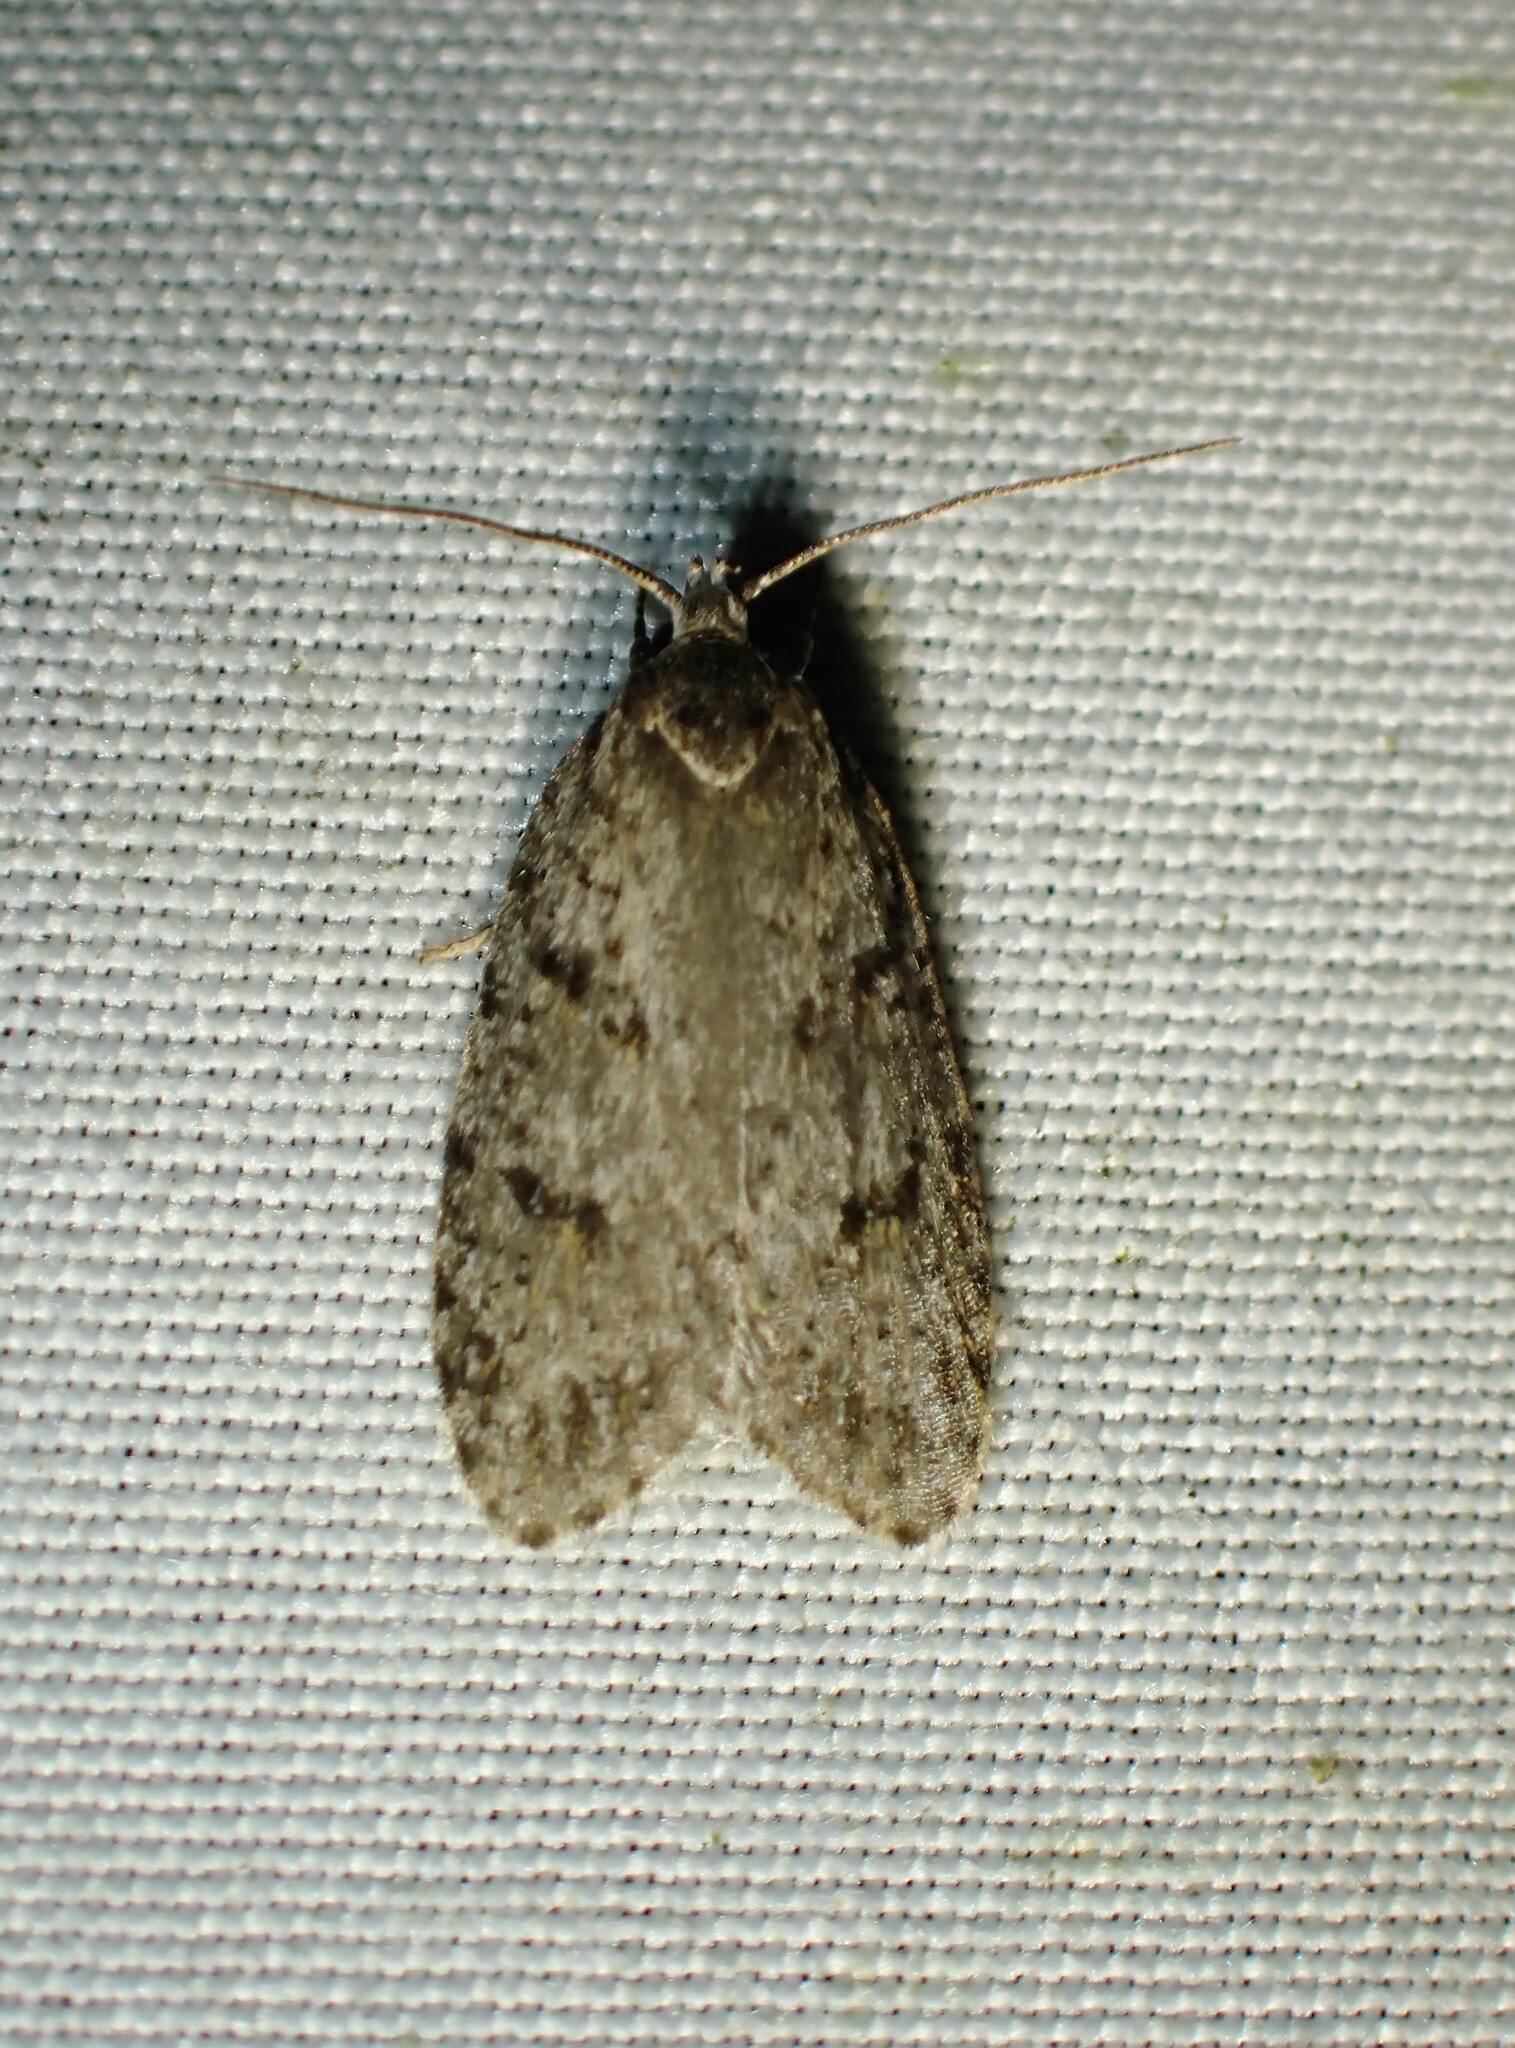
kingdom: Animalia
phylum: Arthropoda
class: Insecta
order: Lepidoptera
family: Depressariidae
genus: Bibarrambla
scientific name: Bibarrambla allenella
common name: Bog bibarrambla moth
